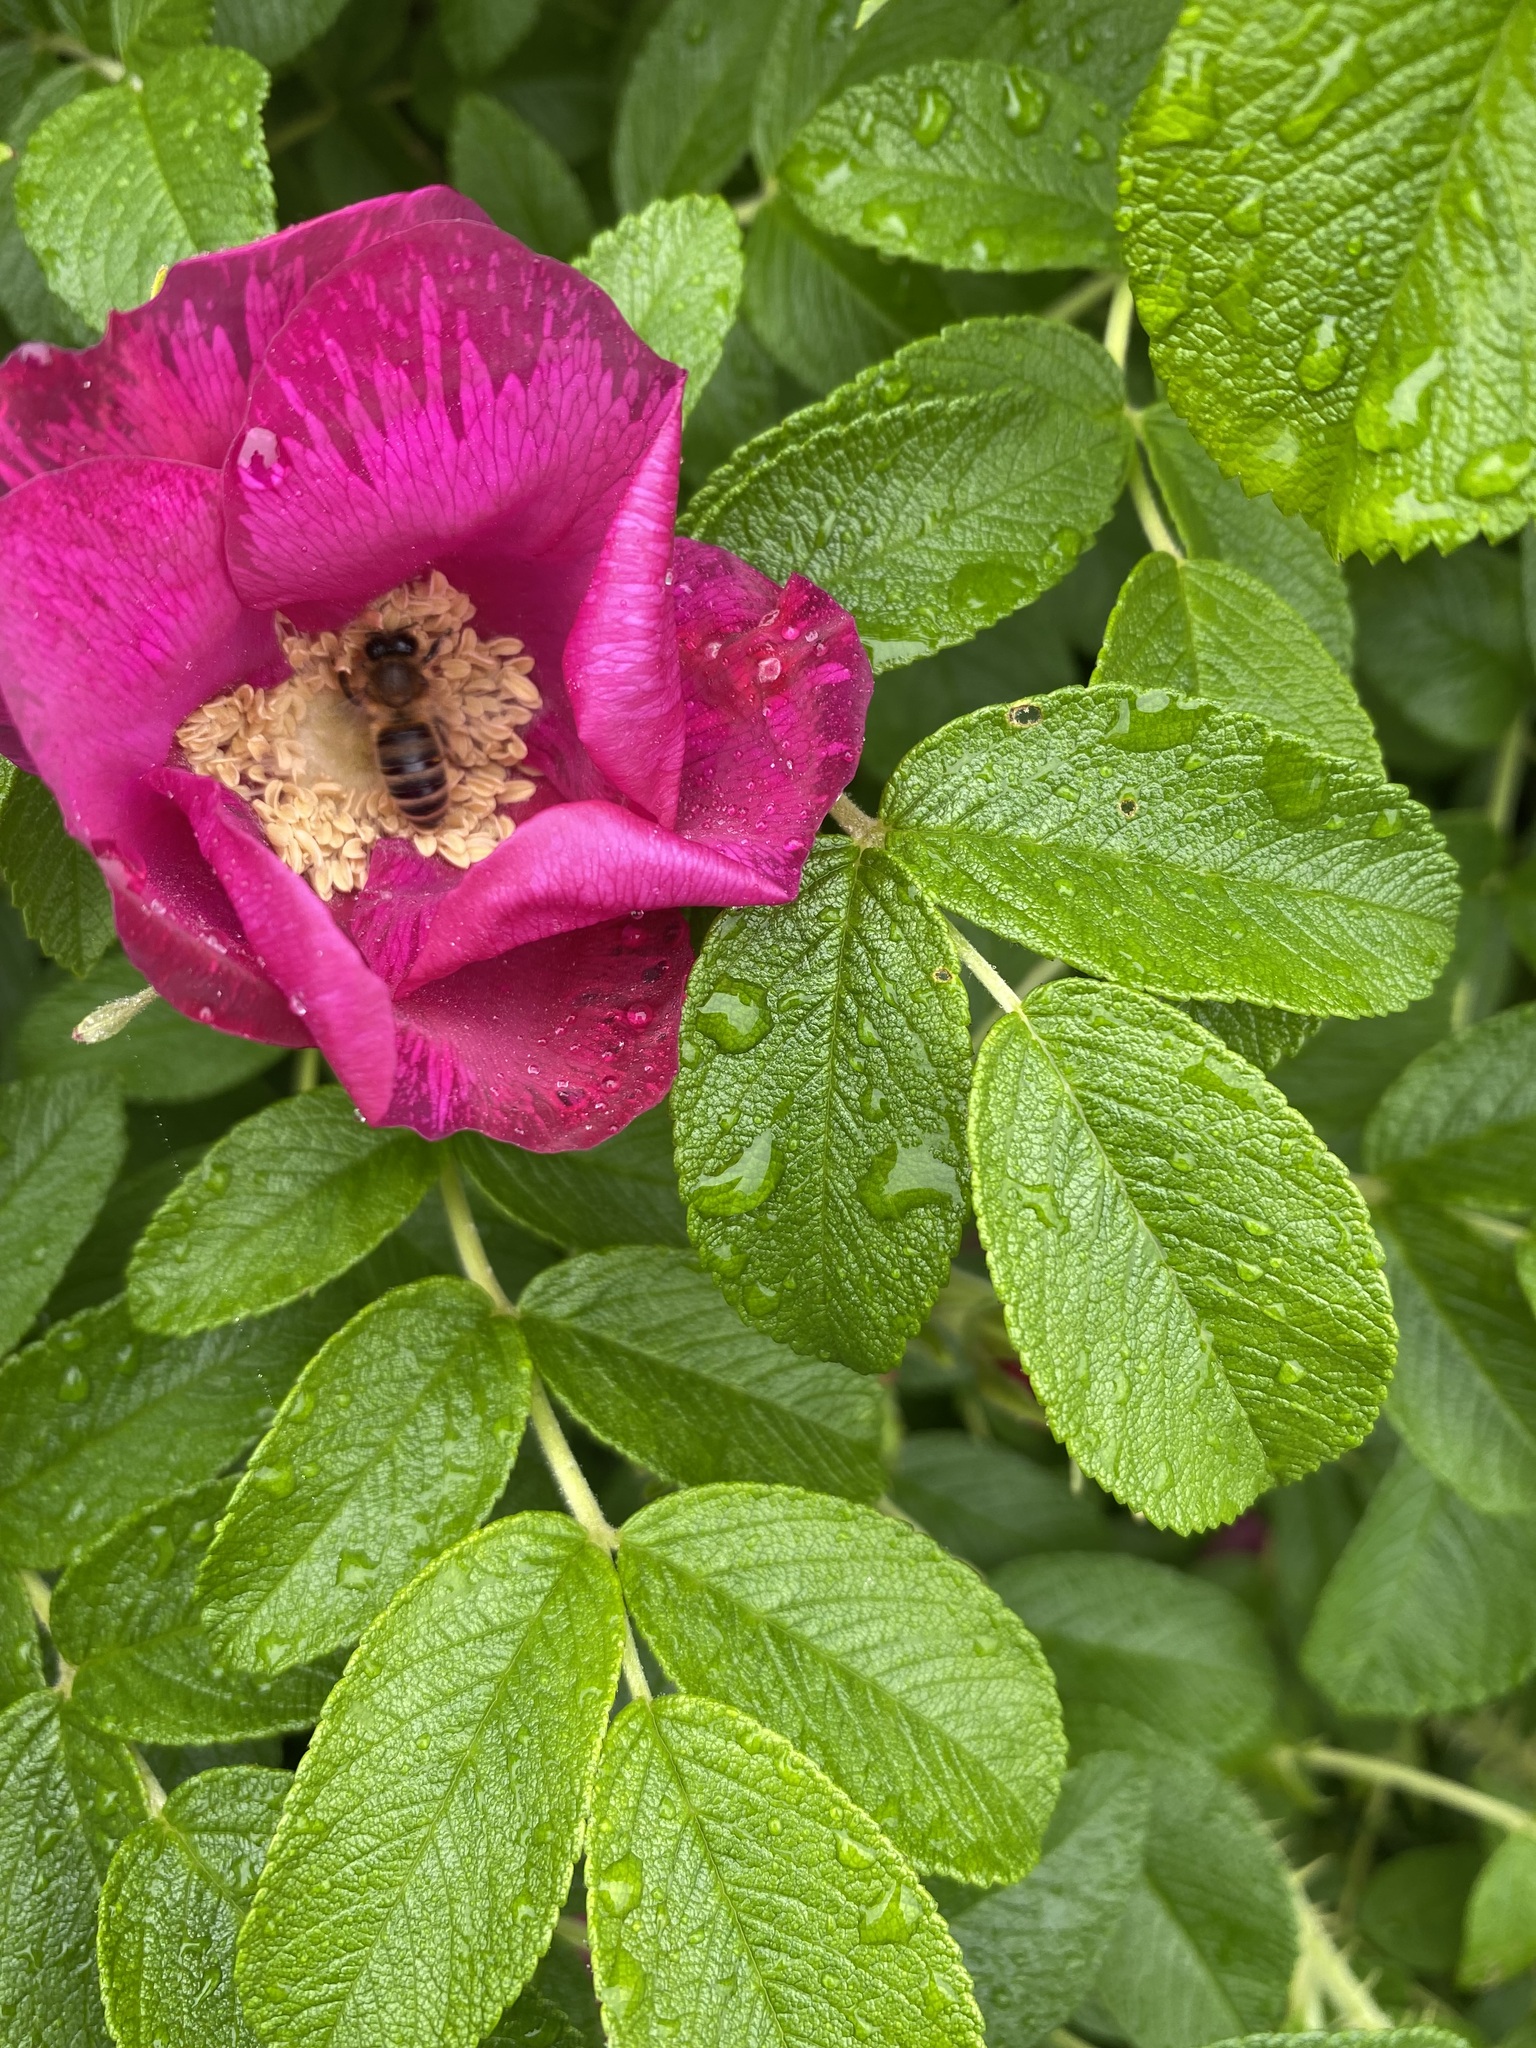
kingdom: Animalia
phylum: Arthropoda
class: Insecta
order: Hymenoptera
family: Apidae
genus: Apis
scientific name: Apis mellifera
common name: Honey bee
